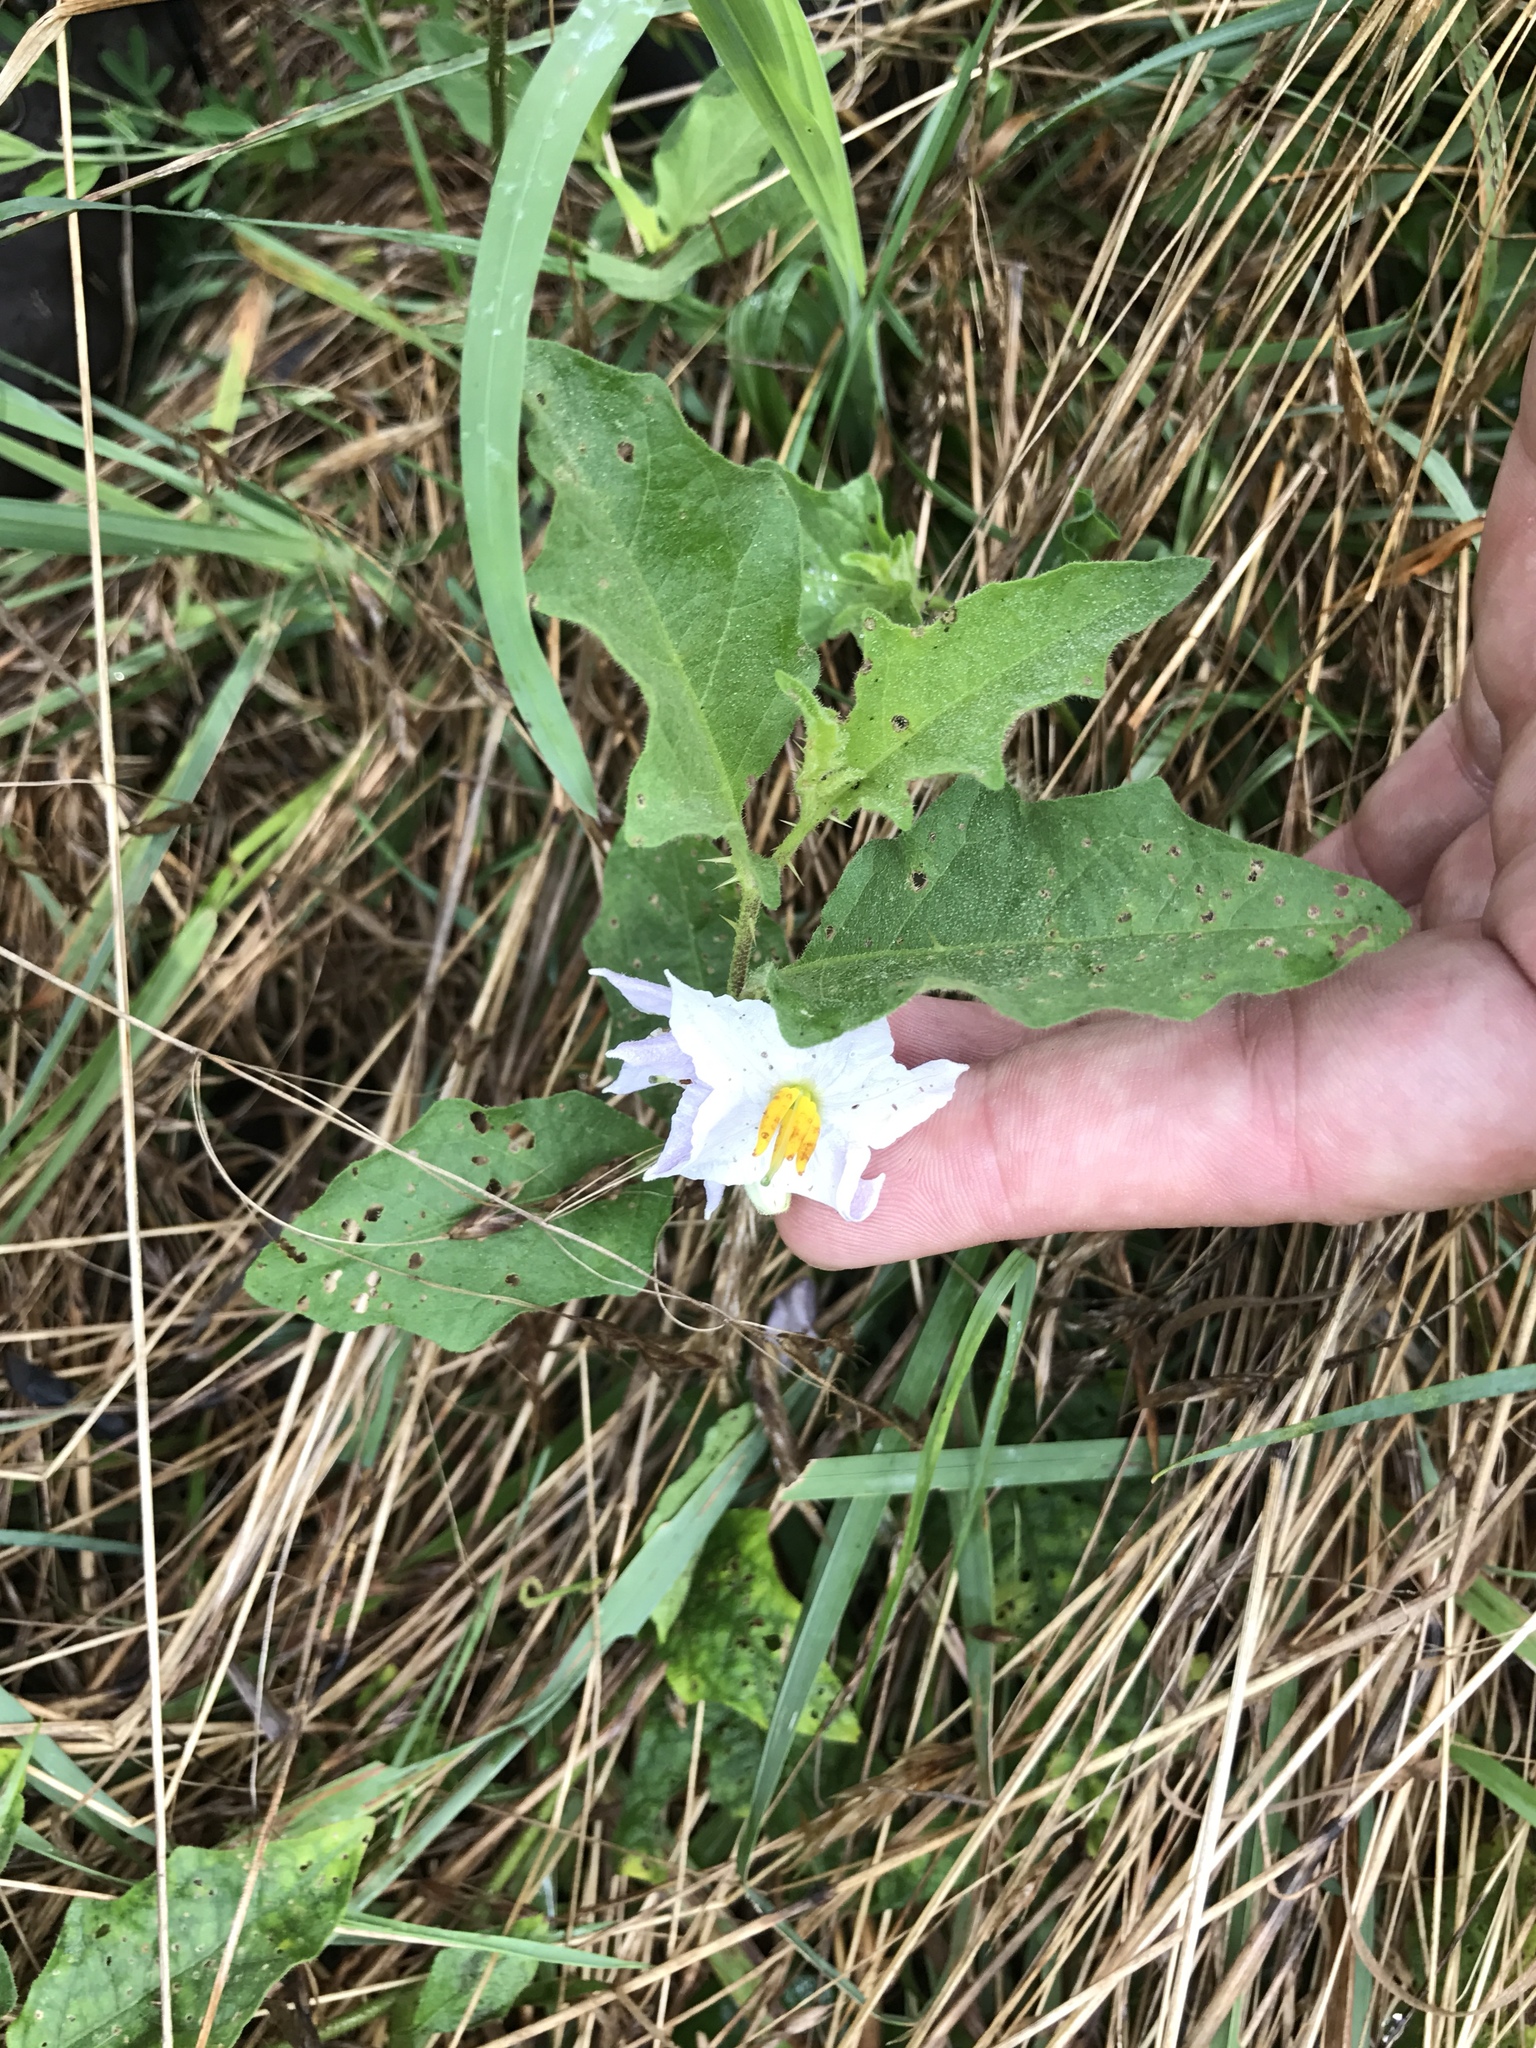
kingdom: Plantae
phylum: Tracheophyta
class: Magnoliopsida
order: Solanales
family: Solanaceae
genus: Solanum
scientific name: Solanum carolinense
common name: Horse-nettle
